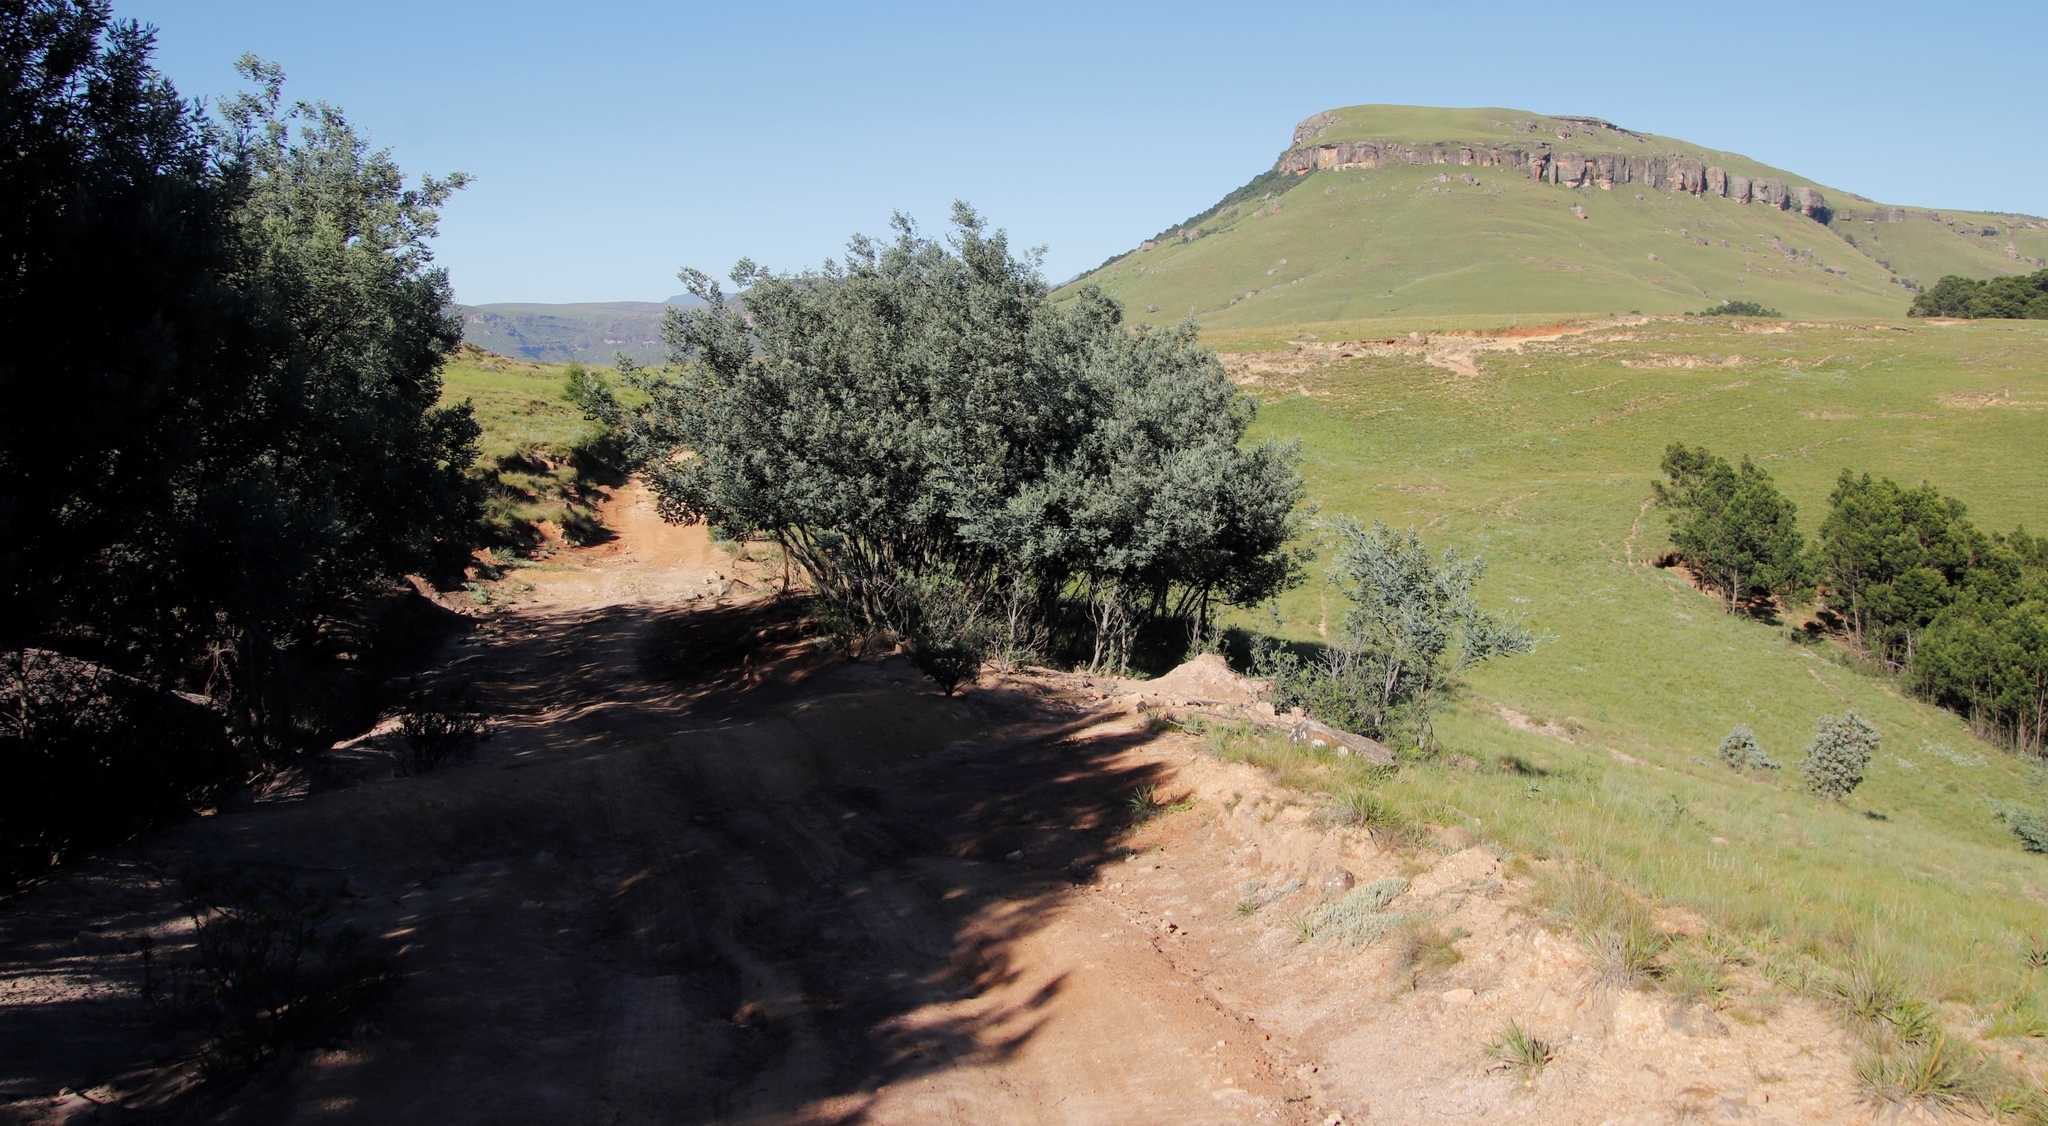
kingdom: Plantae
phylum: Tracheophyta
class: Magnoliopsida
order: Fabales
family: Fabaceae
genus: Acacia
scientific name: Acacia dealbata
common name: Silver wattle
